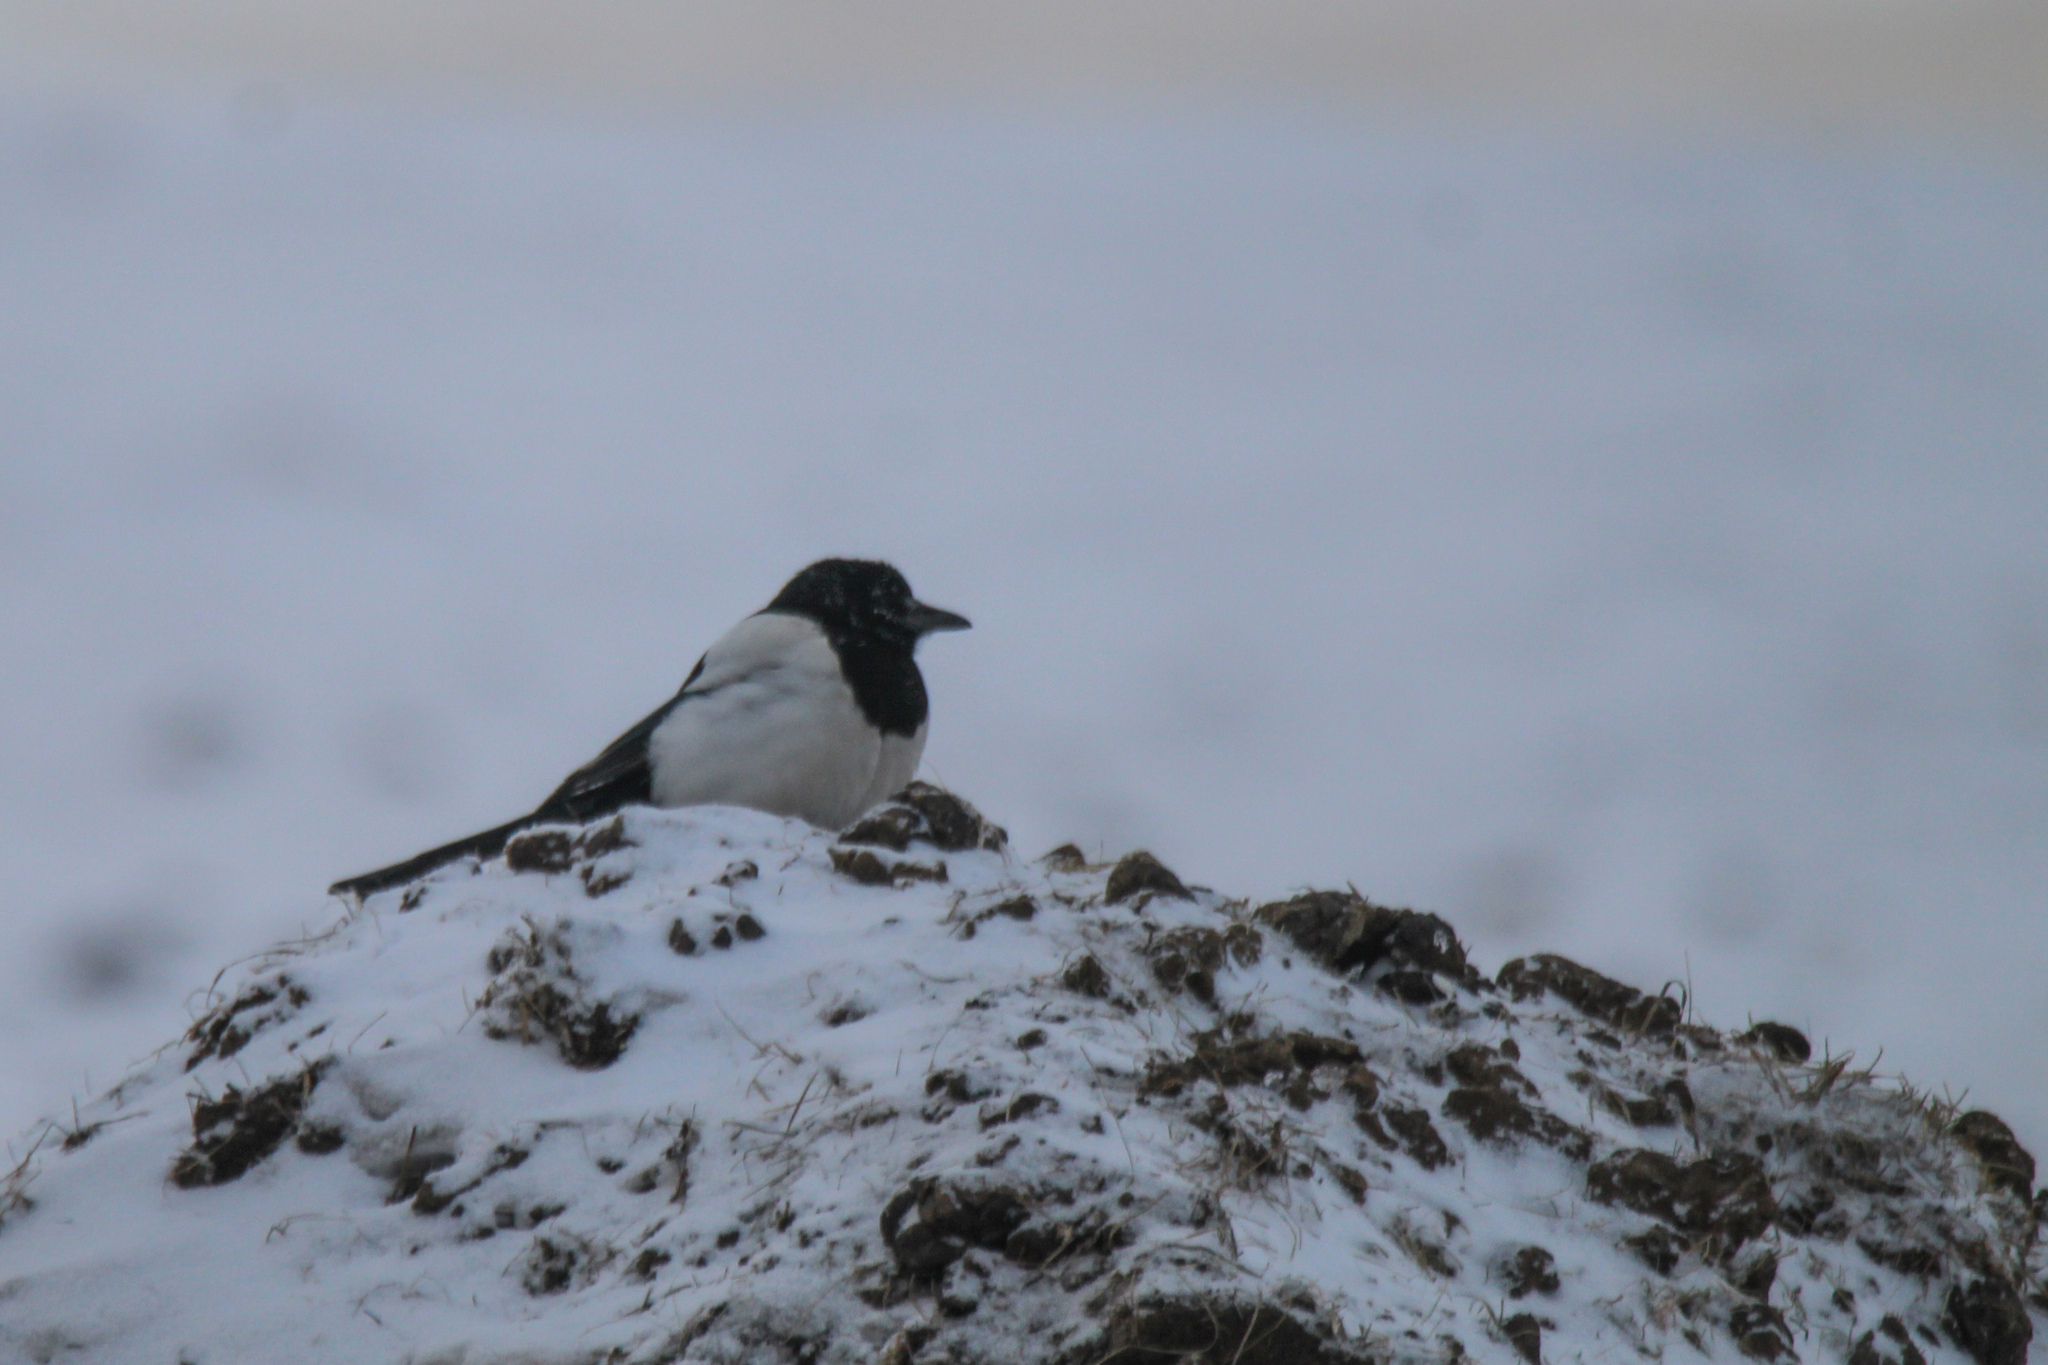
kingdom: Animalia
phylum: Chordata
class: Aves
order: Passeriformes
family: Corvidae
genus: Pica
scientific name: Pica pica
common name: Eurasian magpie
